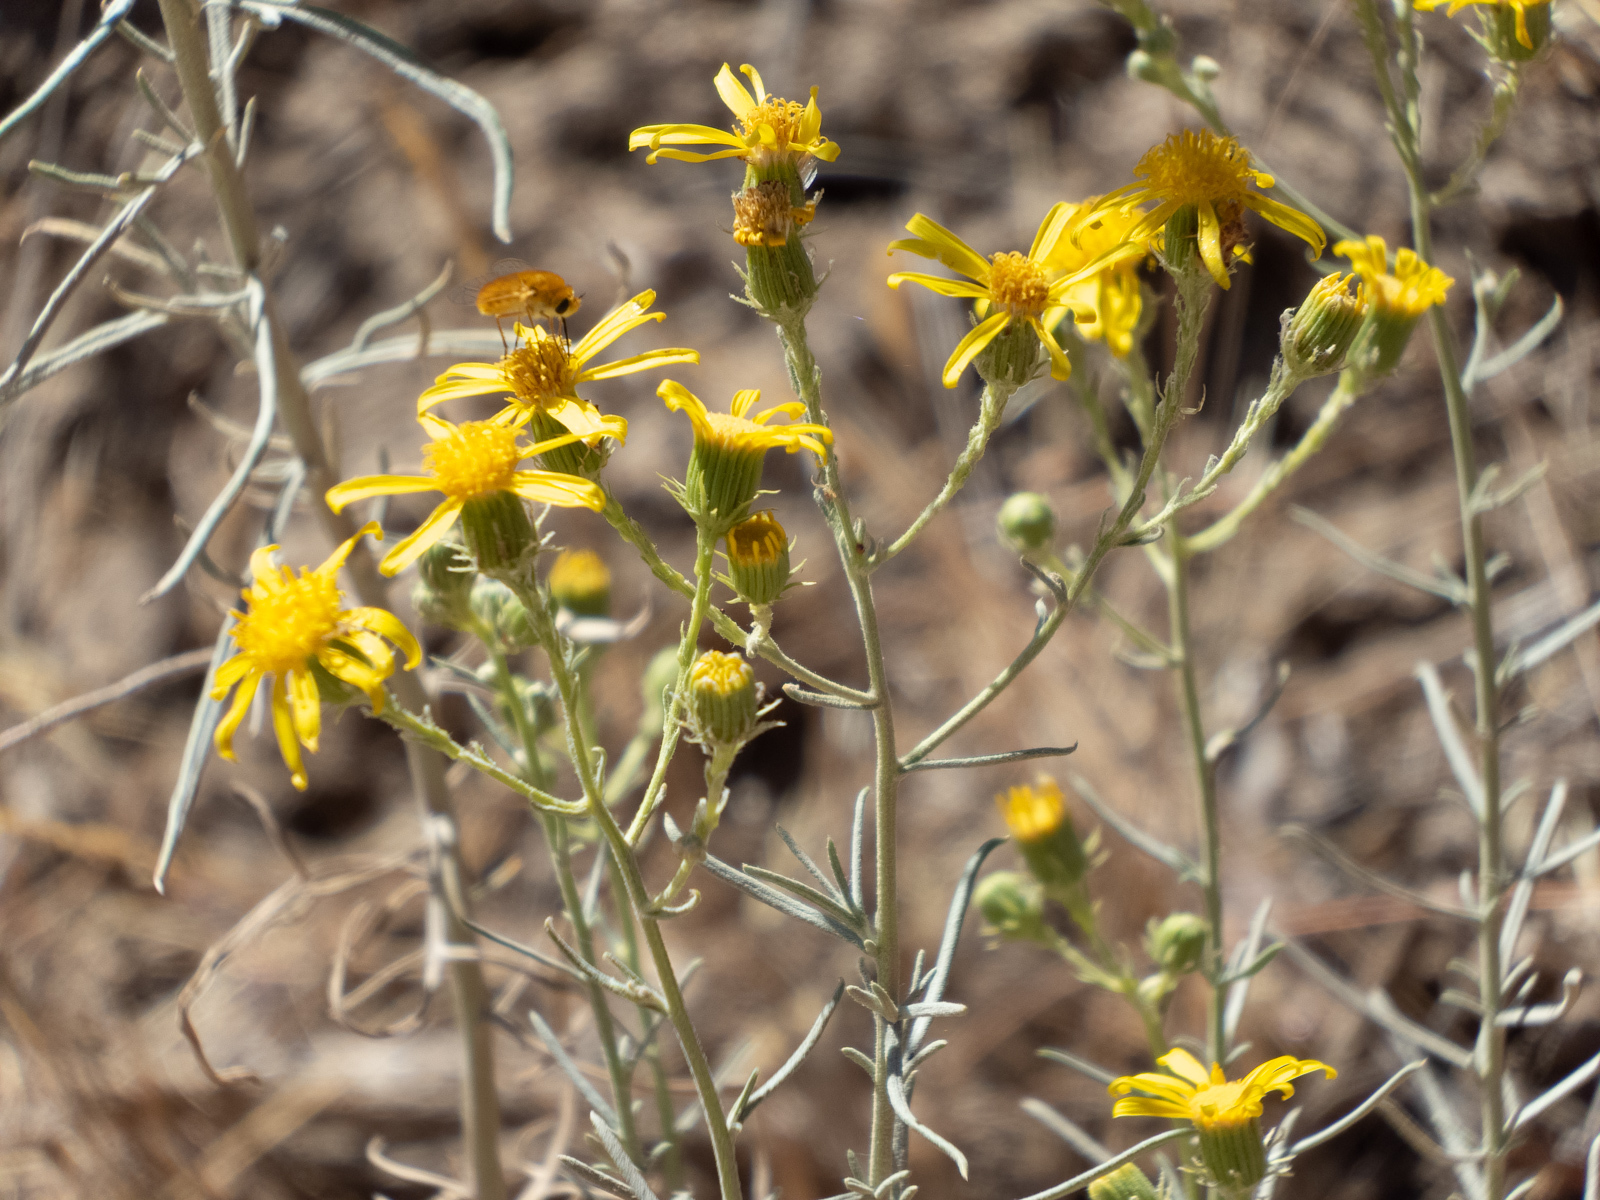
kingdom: Plantae
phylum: Tracheophyta
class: Magnoliopsida
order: Asterales
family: Asteraceae
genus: Senecio
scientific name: Senecio flaccidus
